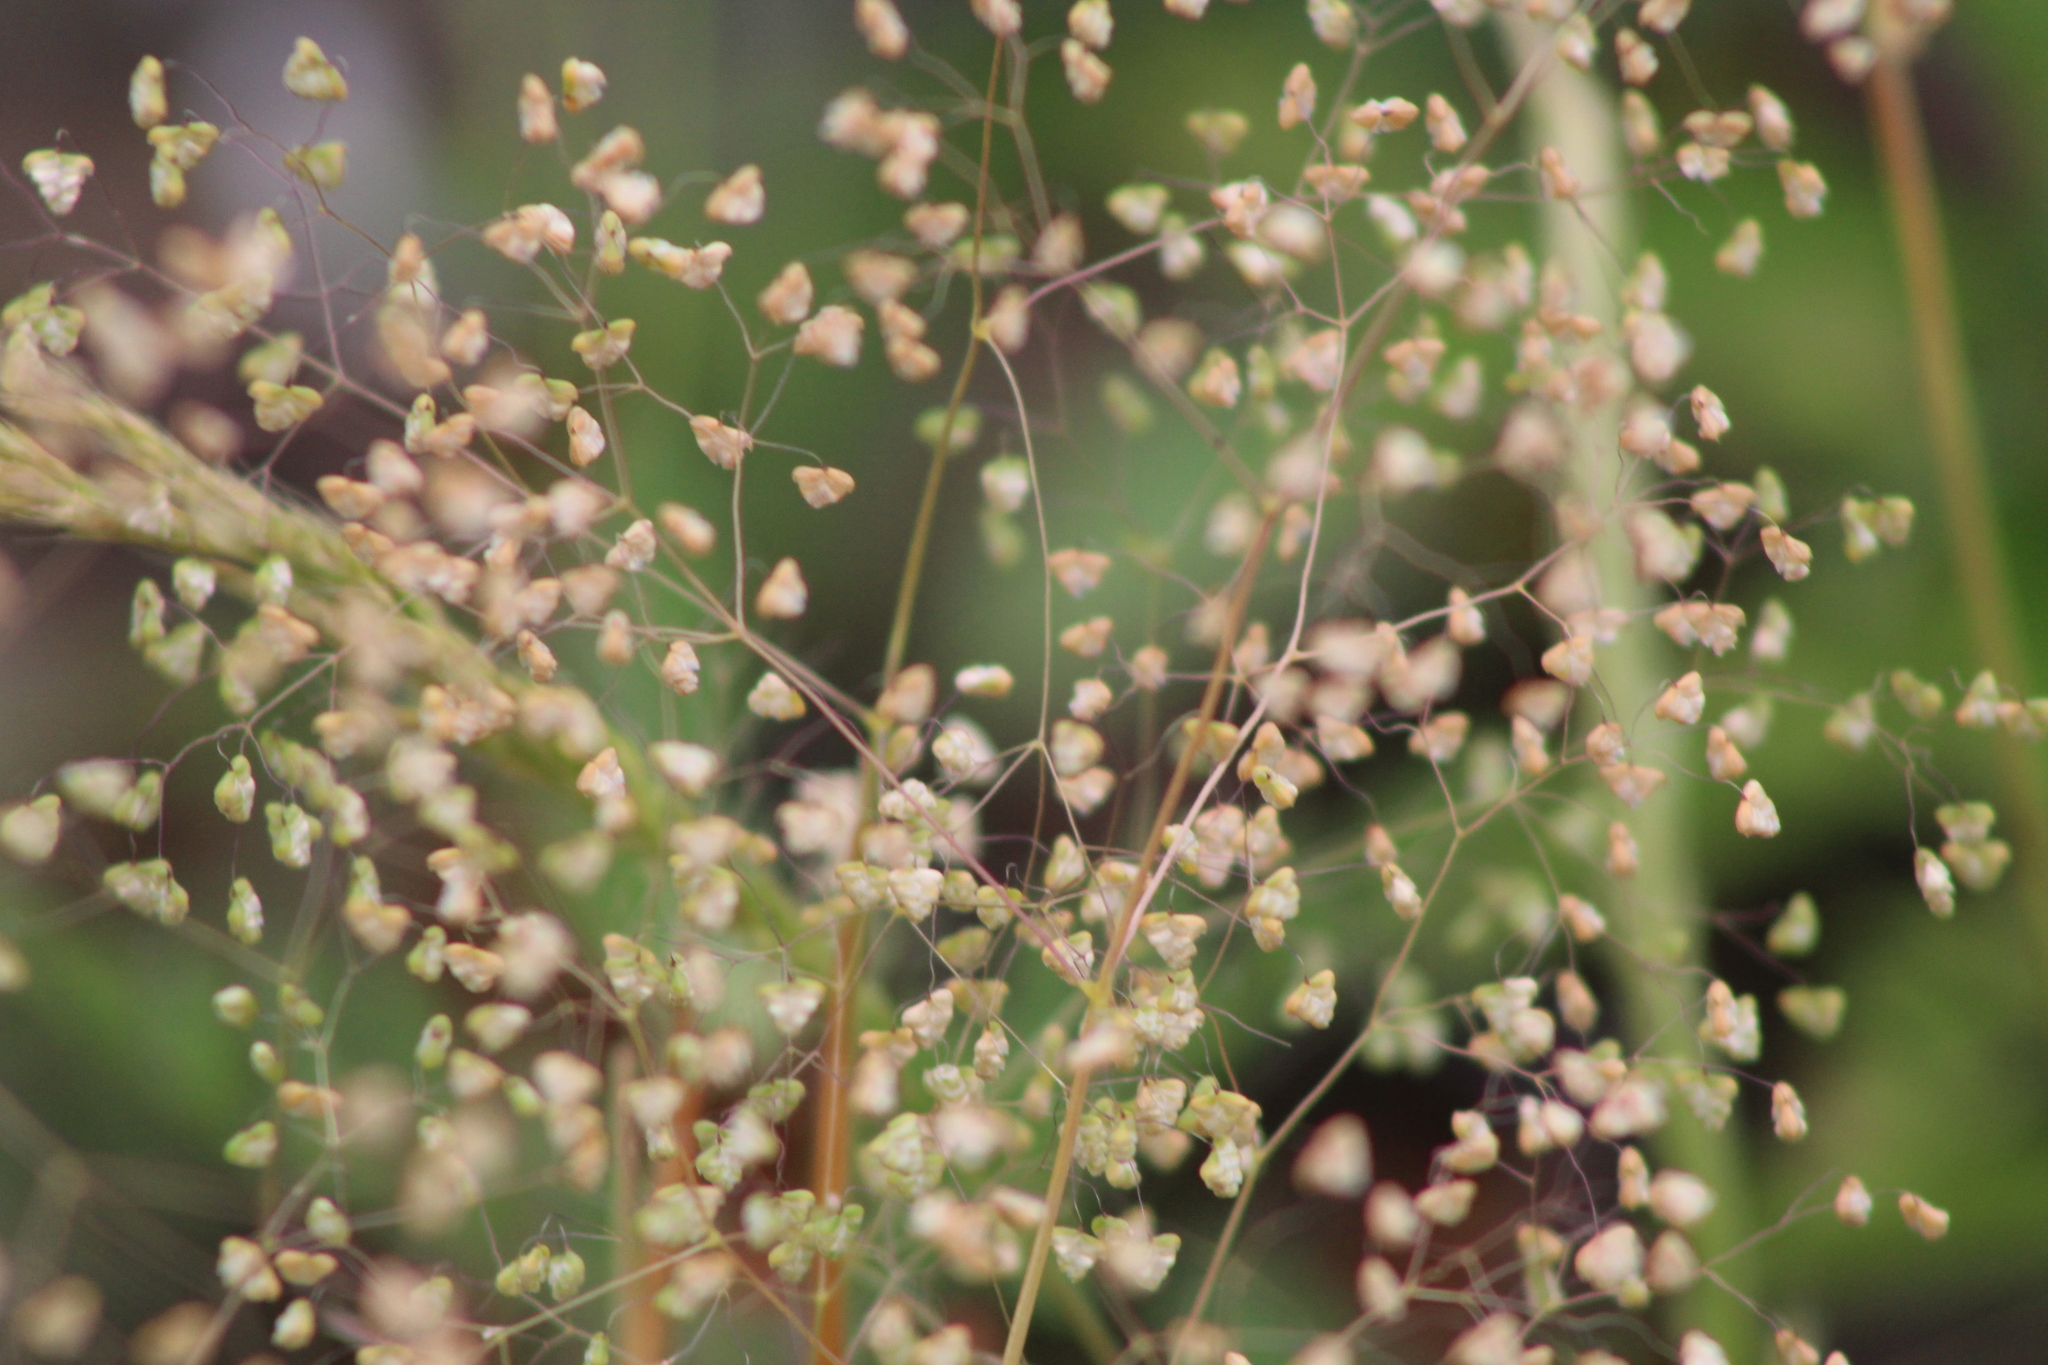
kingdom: Plantae
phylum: Tracheophyta
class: Liliopsida
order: Poales
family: Poaceae
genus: Briza
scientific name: Briza minor
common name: Lesser quaking-grass
